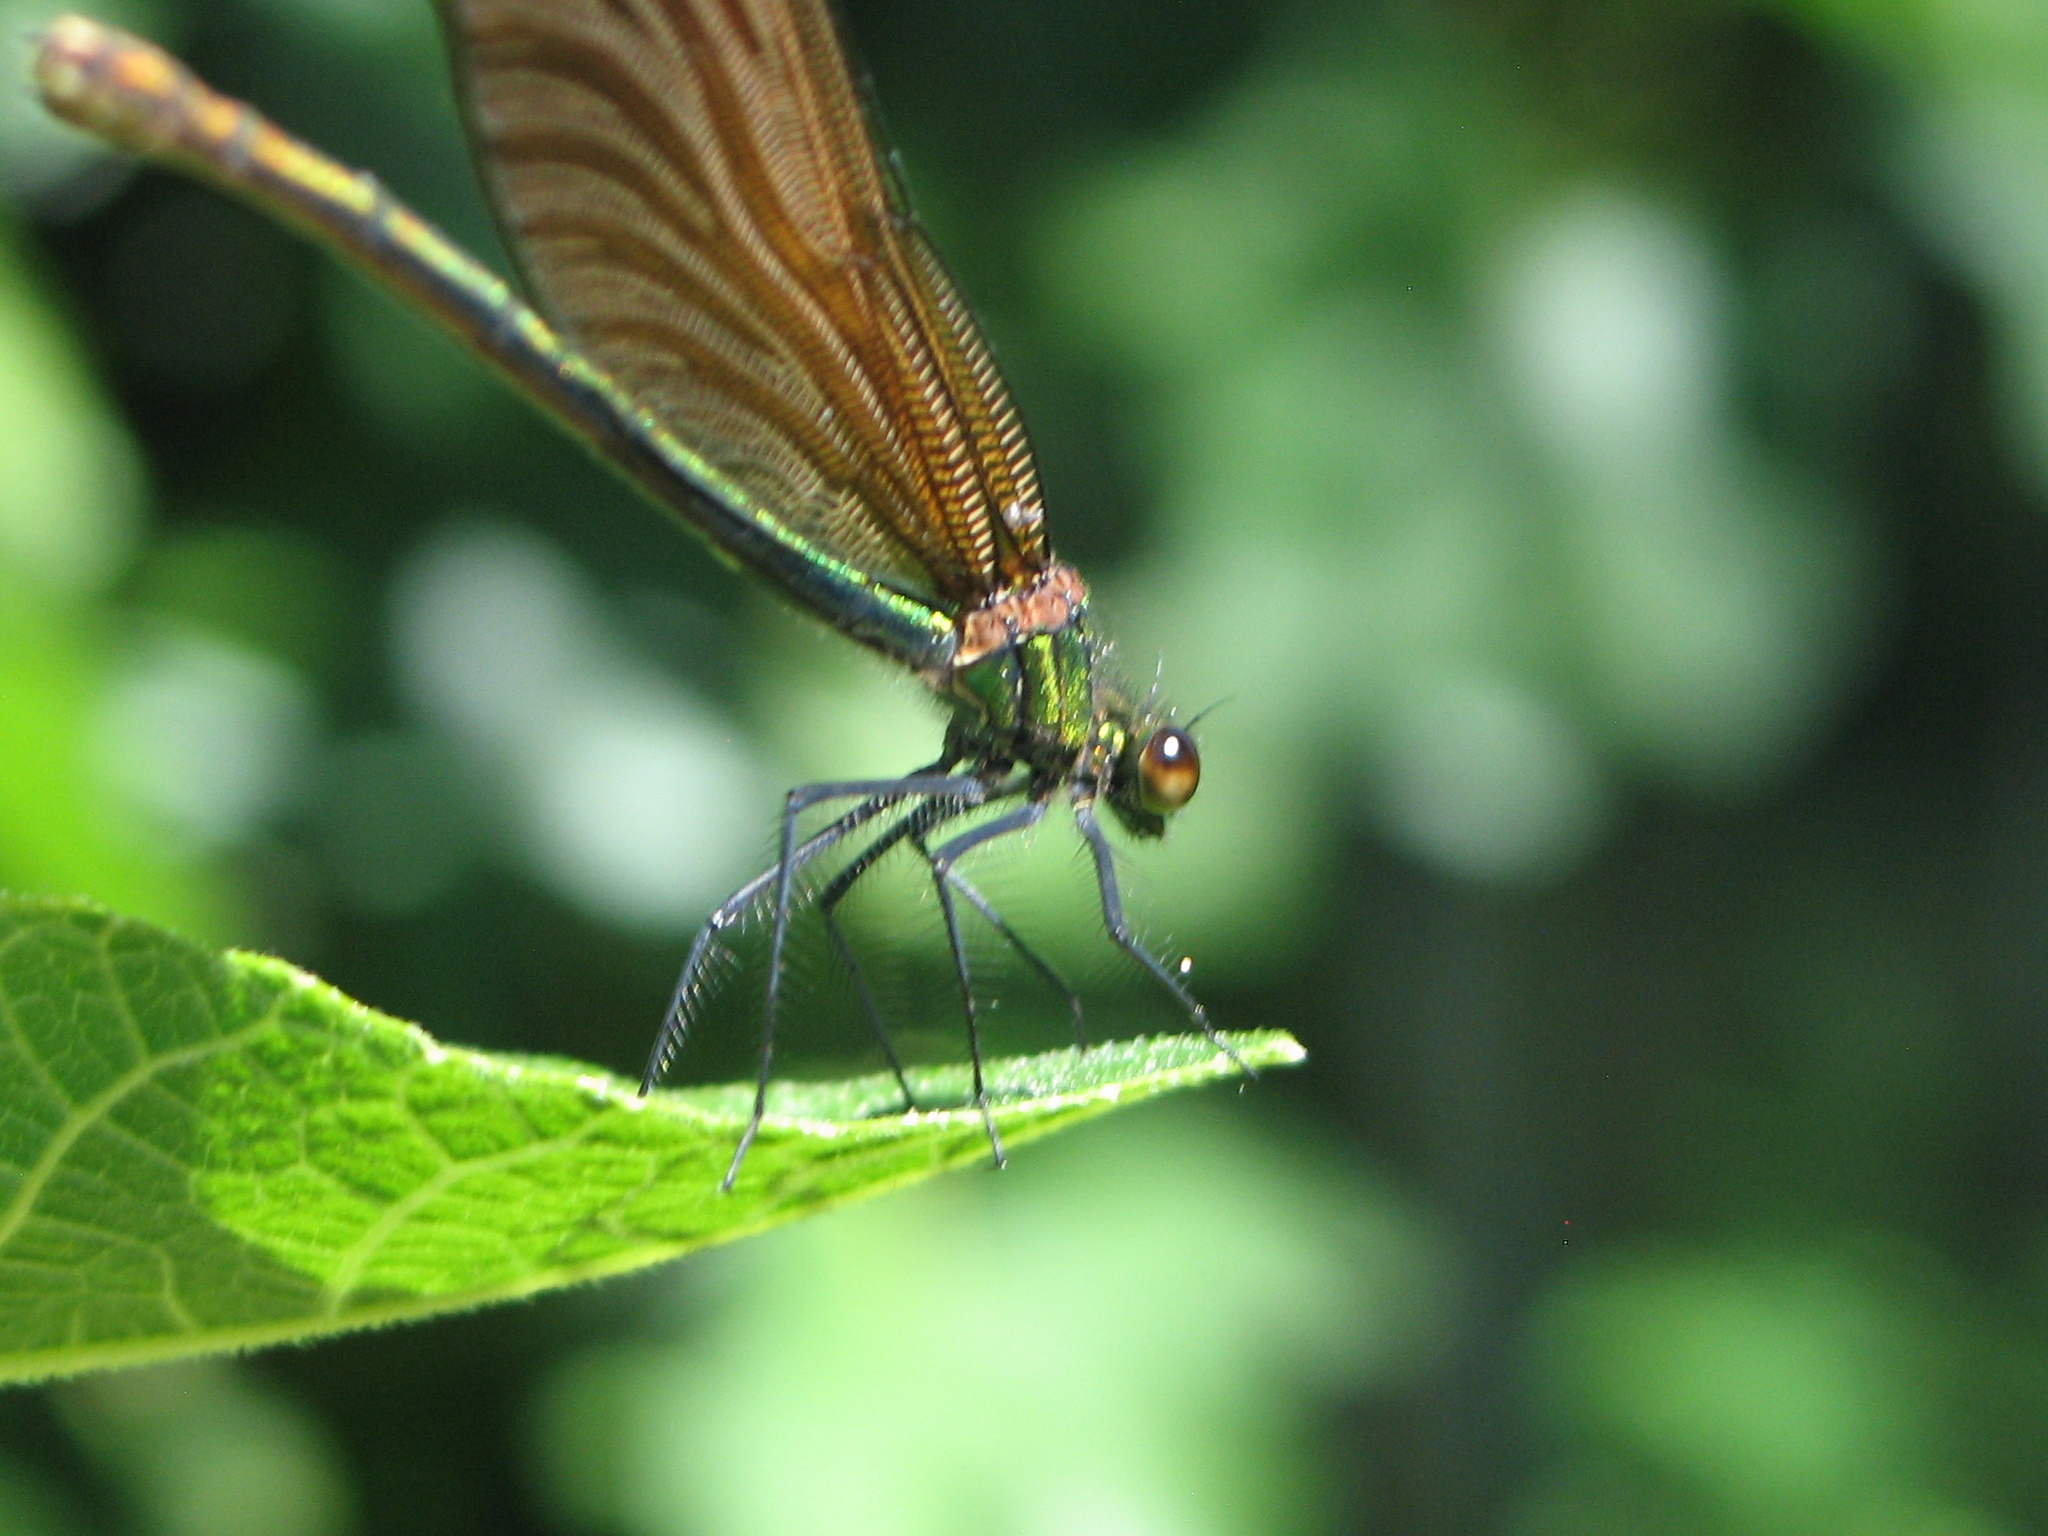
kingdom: Animalia
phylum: Arthropoda
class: Insecta
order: Odonata
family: Calopterygidae
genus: Calopteryx
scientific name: Calopteryx virgo
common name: Beautiful demoiselle
